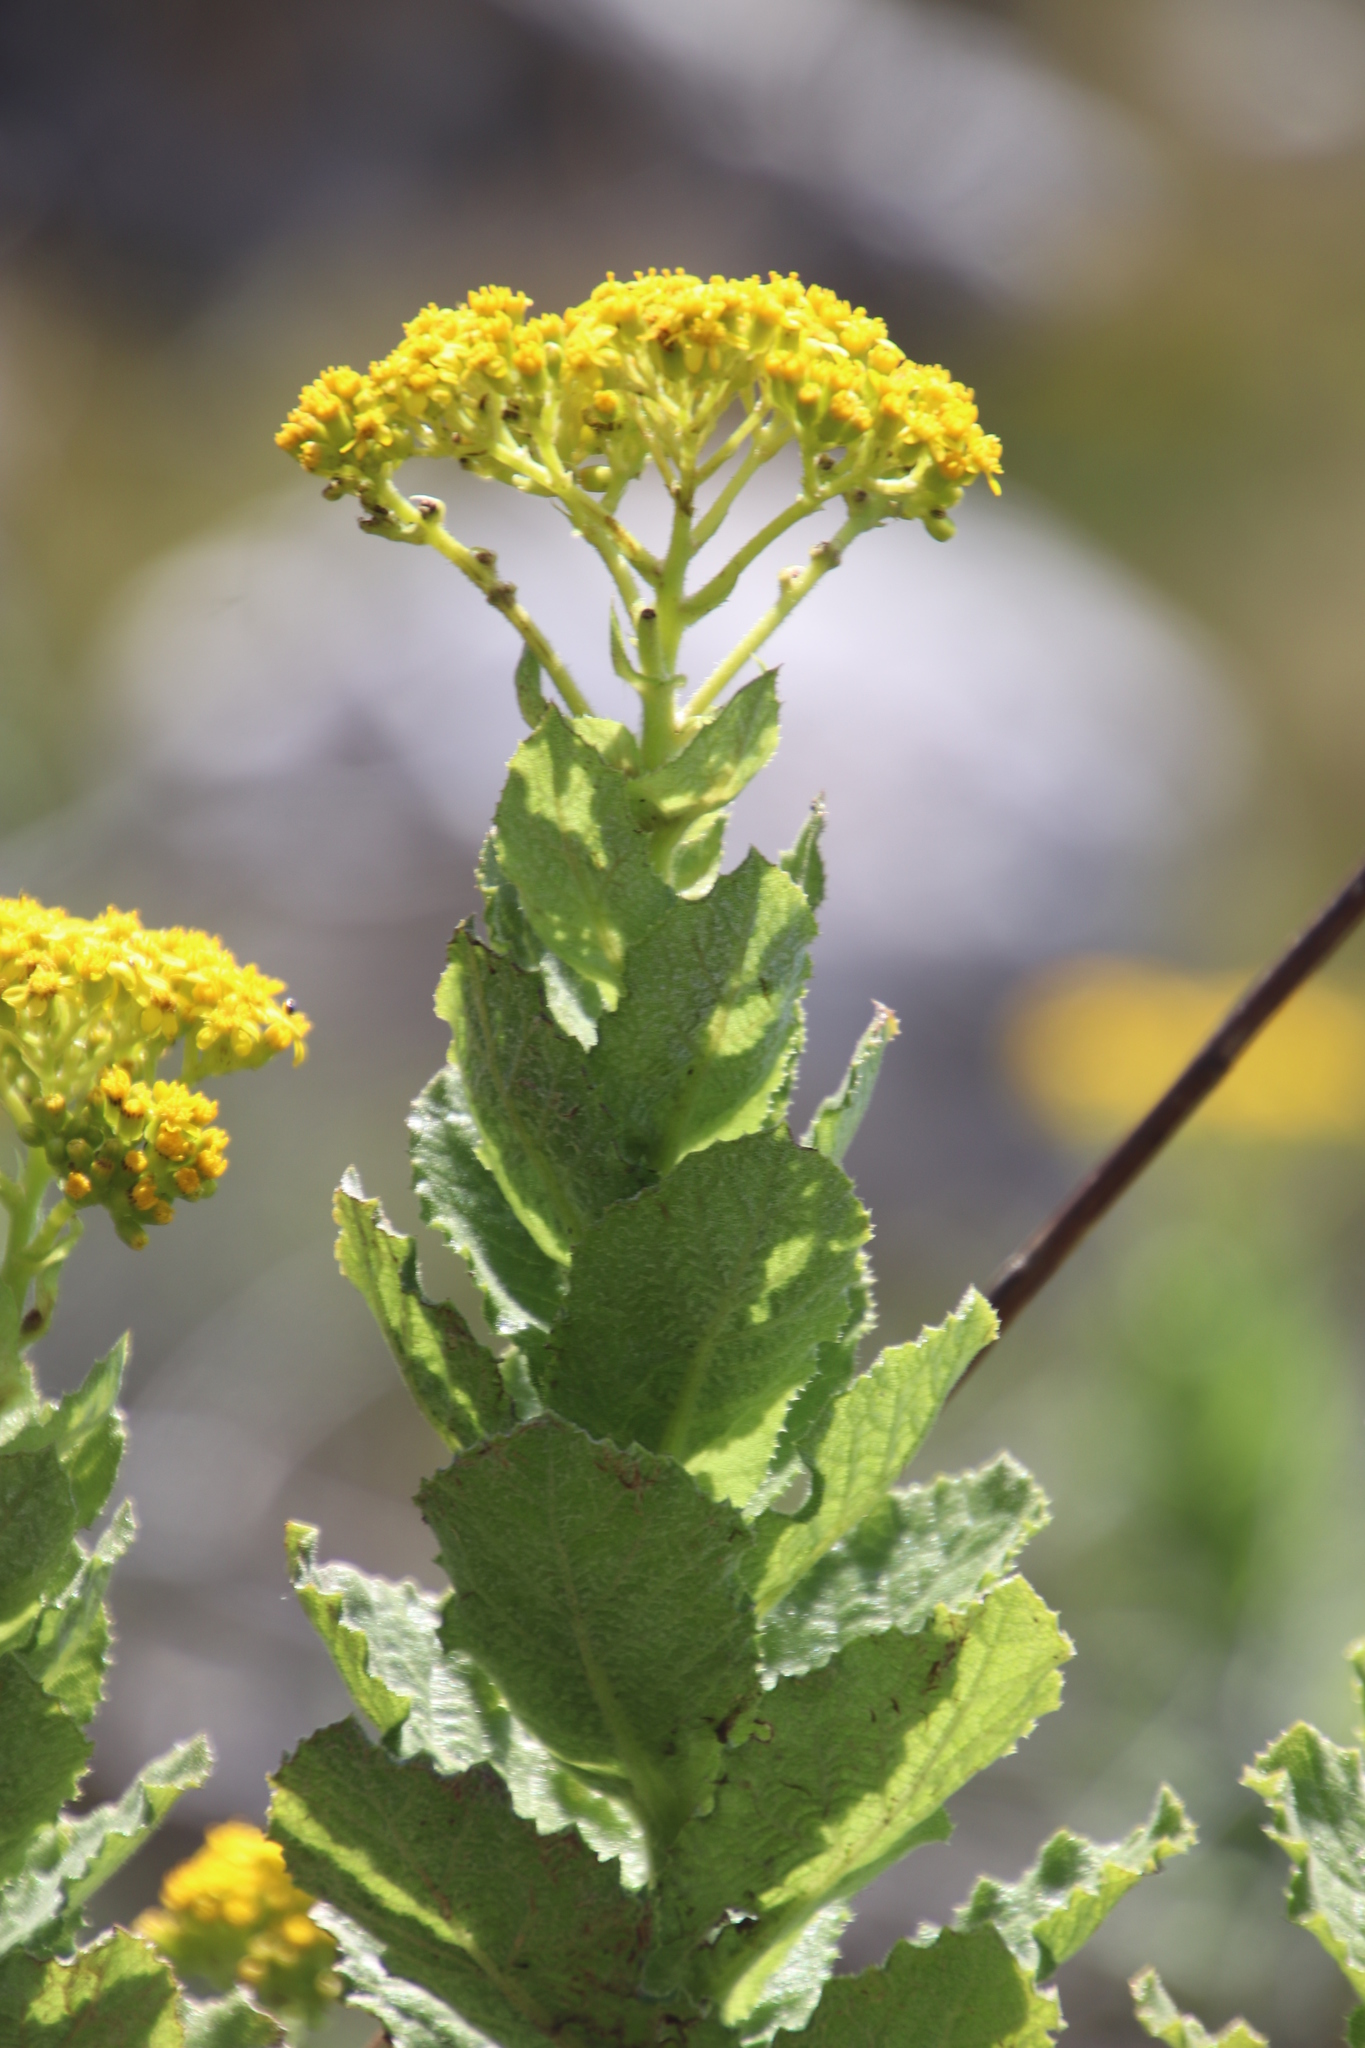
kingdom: Plantae
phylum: Tracheophyta
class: Magnoliopsida
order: Asterales
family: Asteraceae
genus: Senecio
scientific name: Senecio rigidus
